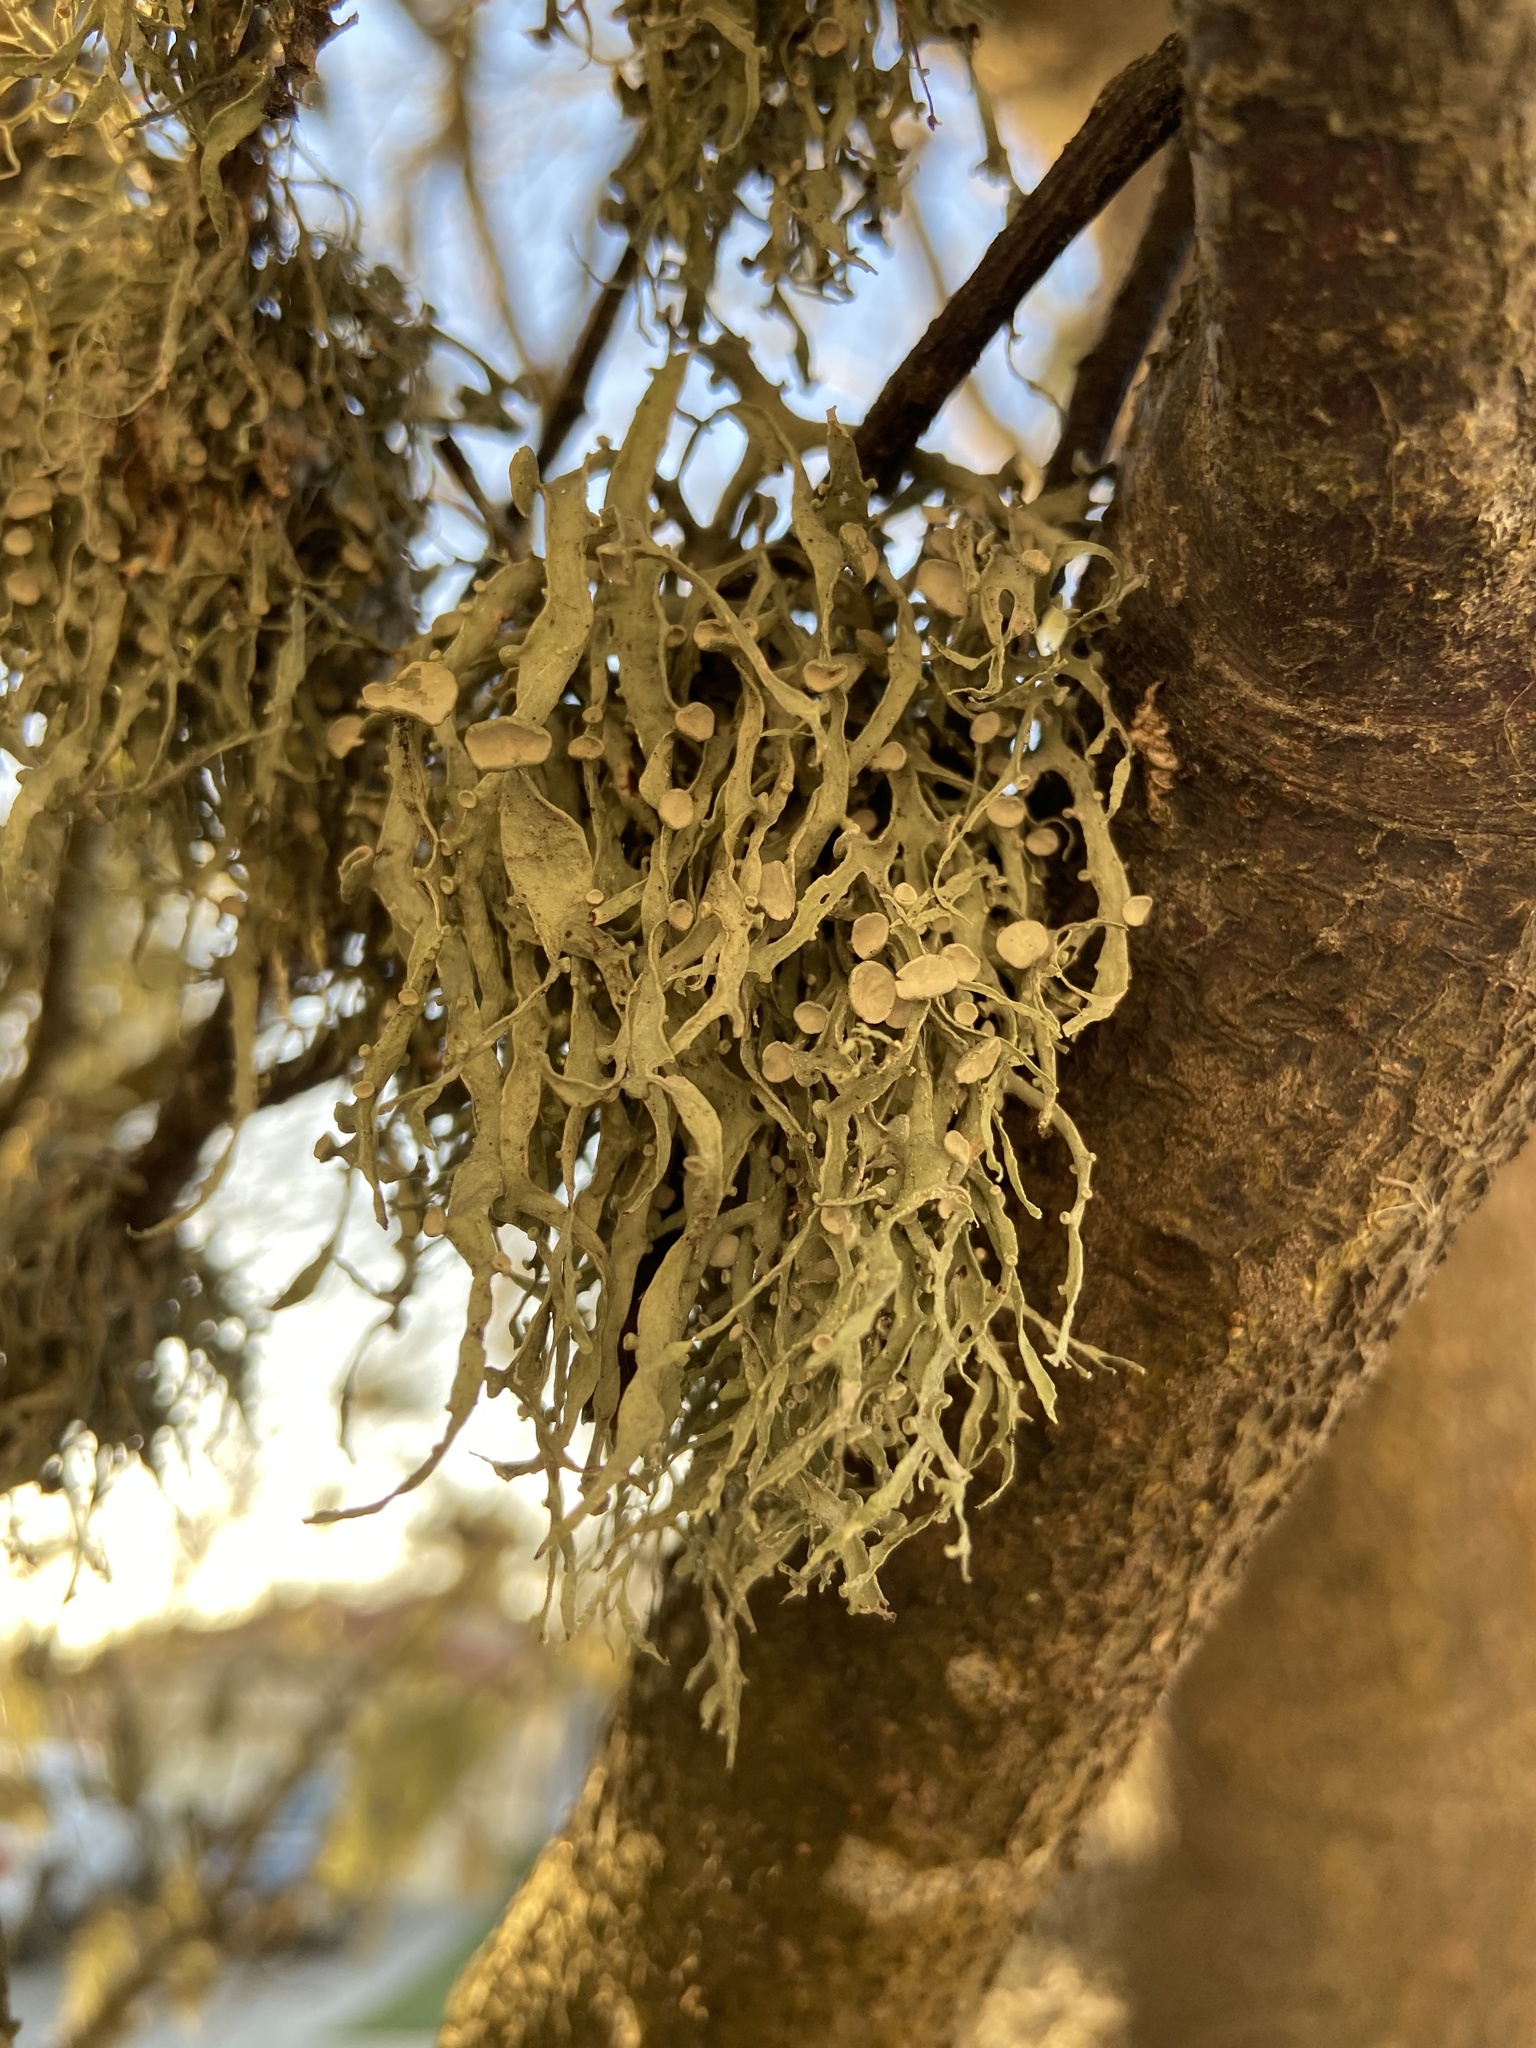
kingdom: Fungi
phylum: Ascomycota
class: Lecanoromycetes
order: Lecanorales
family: Ramalinaceae
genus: Ramalina
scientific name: Ramalina leptocarpha
